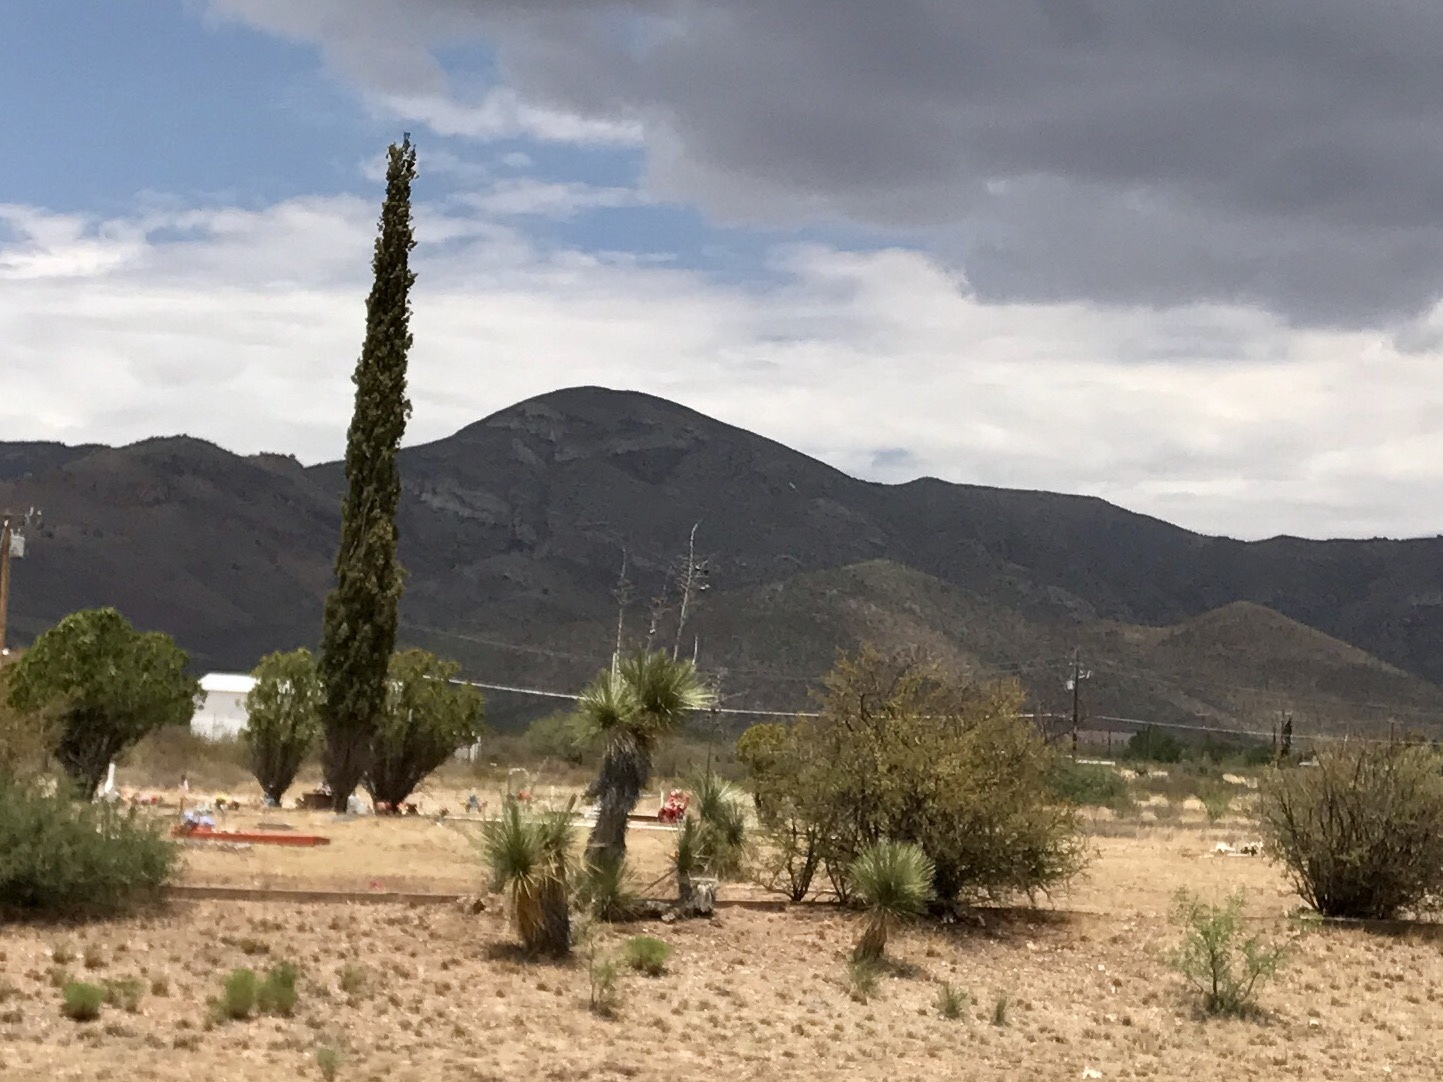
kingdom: Plantae
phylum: Tracheophyta
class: Liliopsida
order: Asparagales
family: Asparagaceae
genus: Yucca
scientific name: Yucca elata
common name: Palmella
